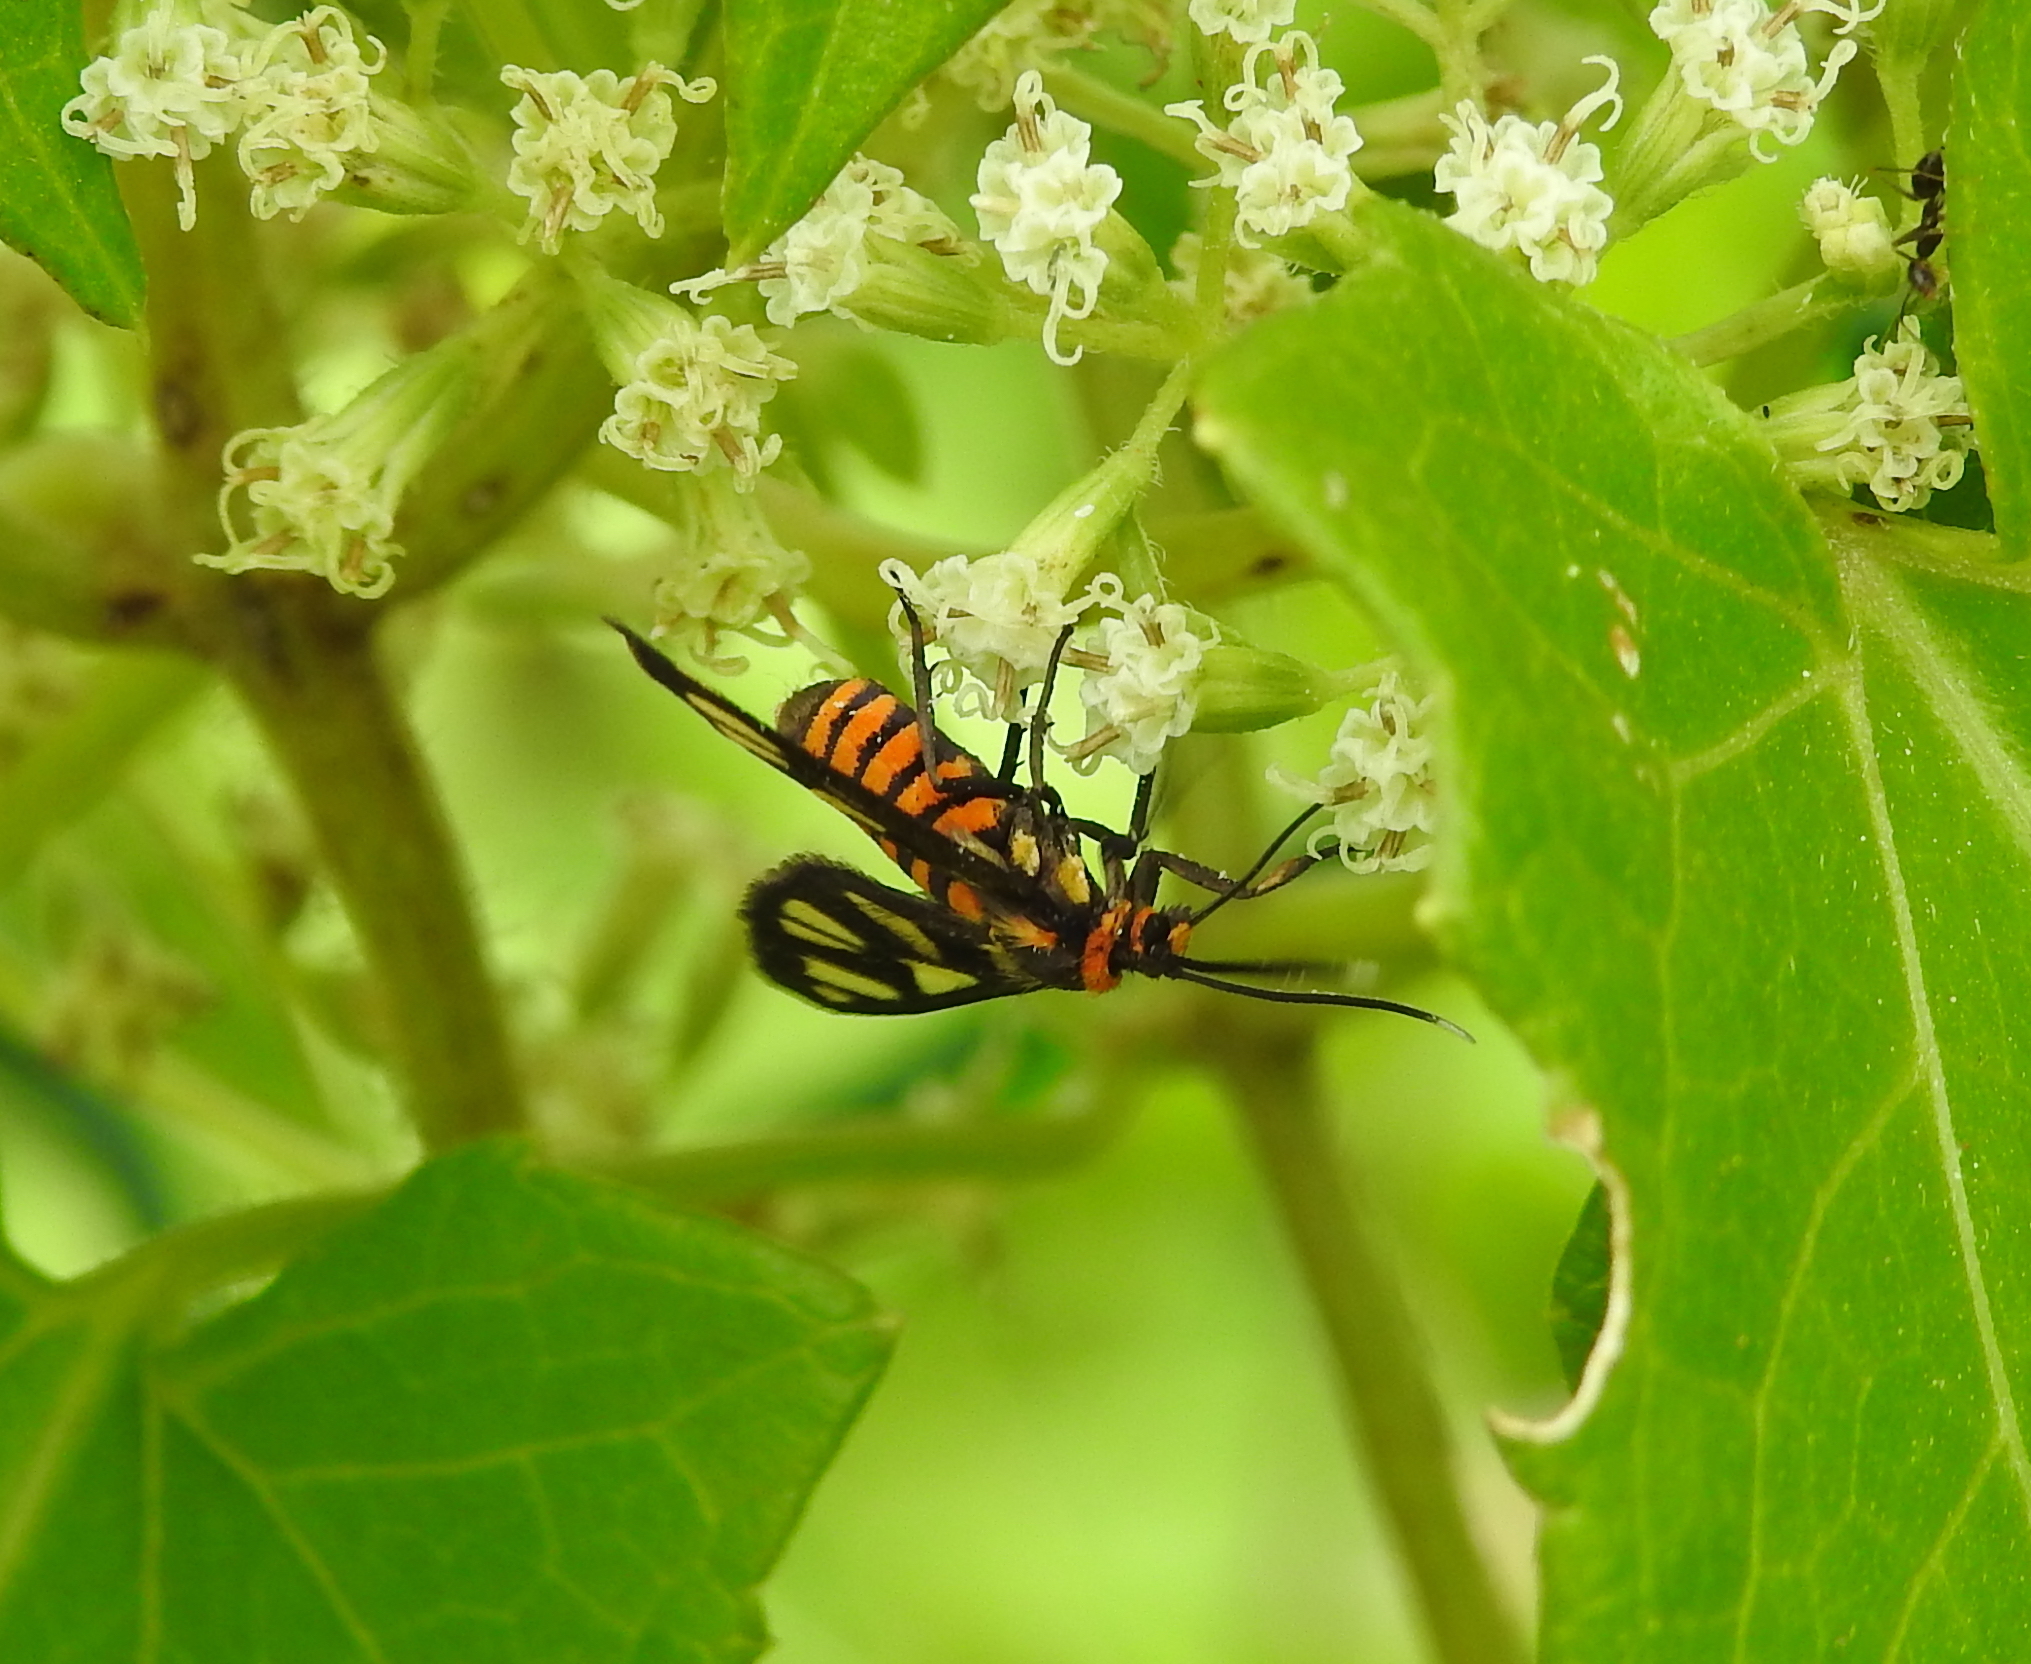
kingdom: Animalia
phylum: Arthropoda
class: Insecta
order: Lepidoptera
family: Erebidae
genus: Amata
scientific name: Amata huebneri
